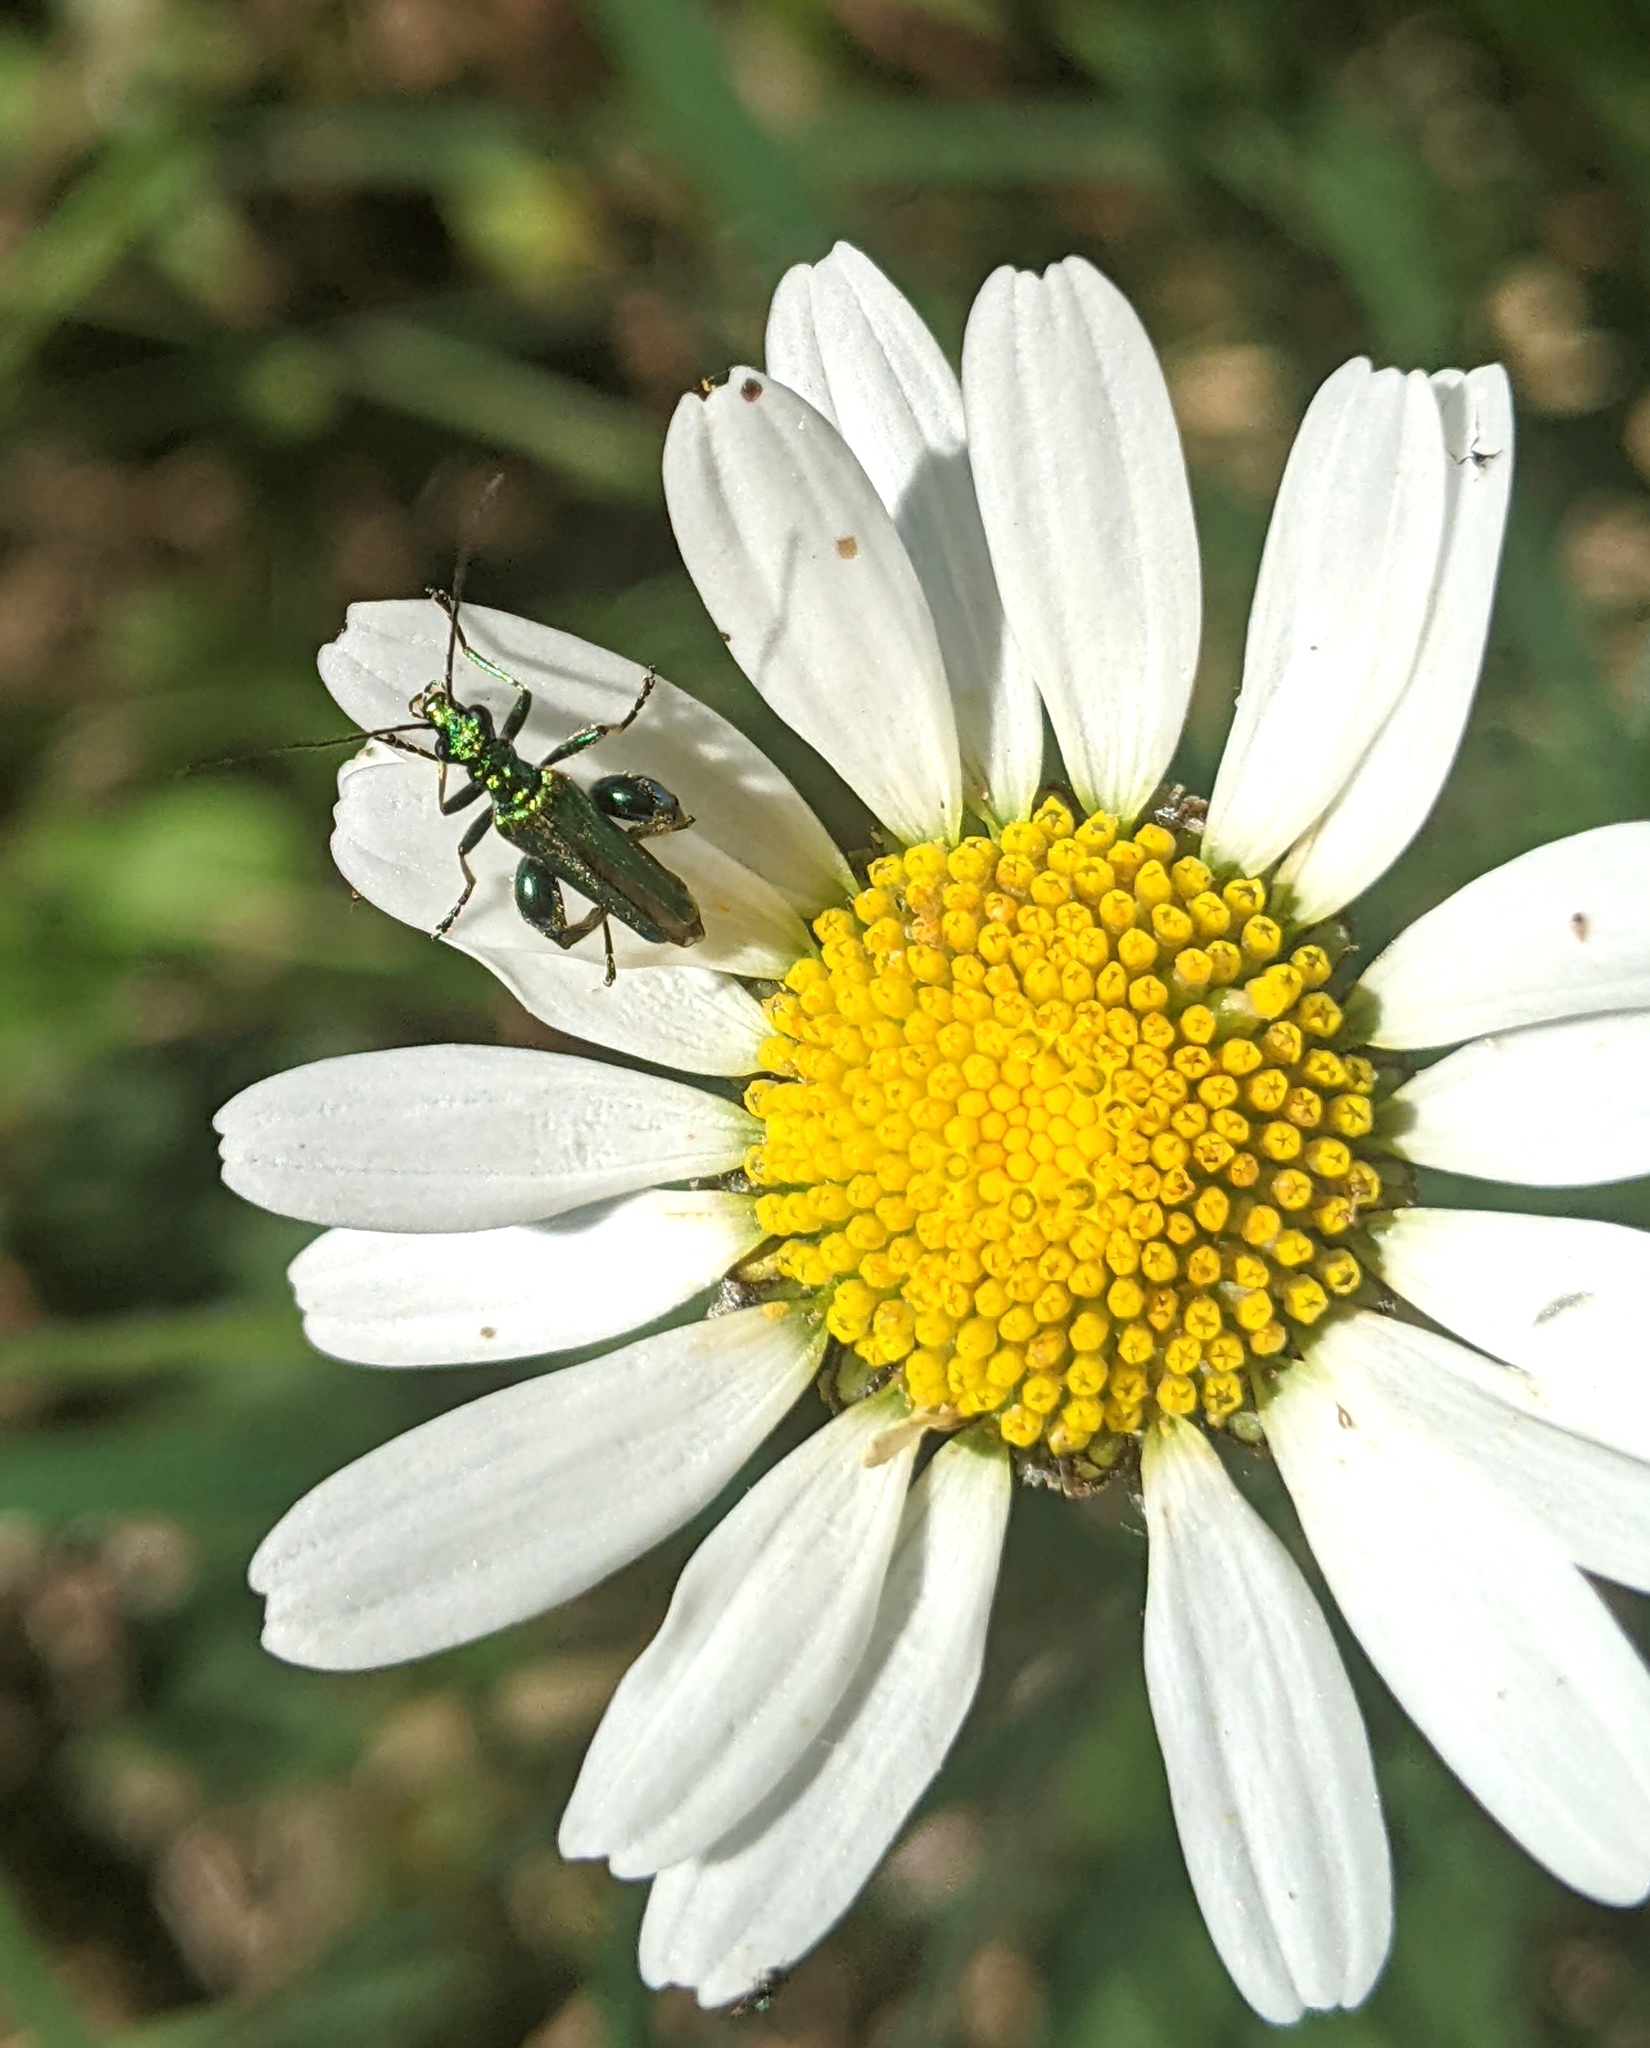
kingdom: Animalia
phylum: Arthropoda
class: Insecta
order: Coleoptera
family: Oedemeridae
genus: Oedemera
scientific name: Oedemera nobilis
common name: Swollen-thighed beetle
